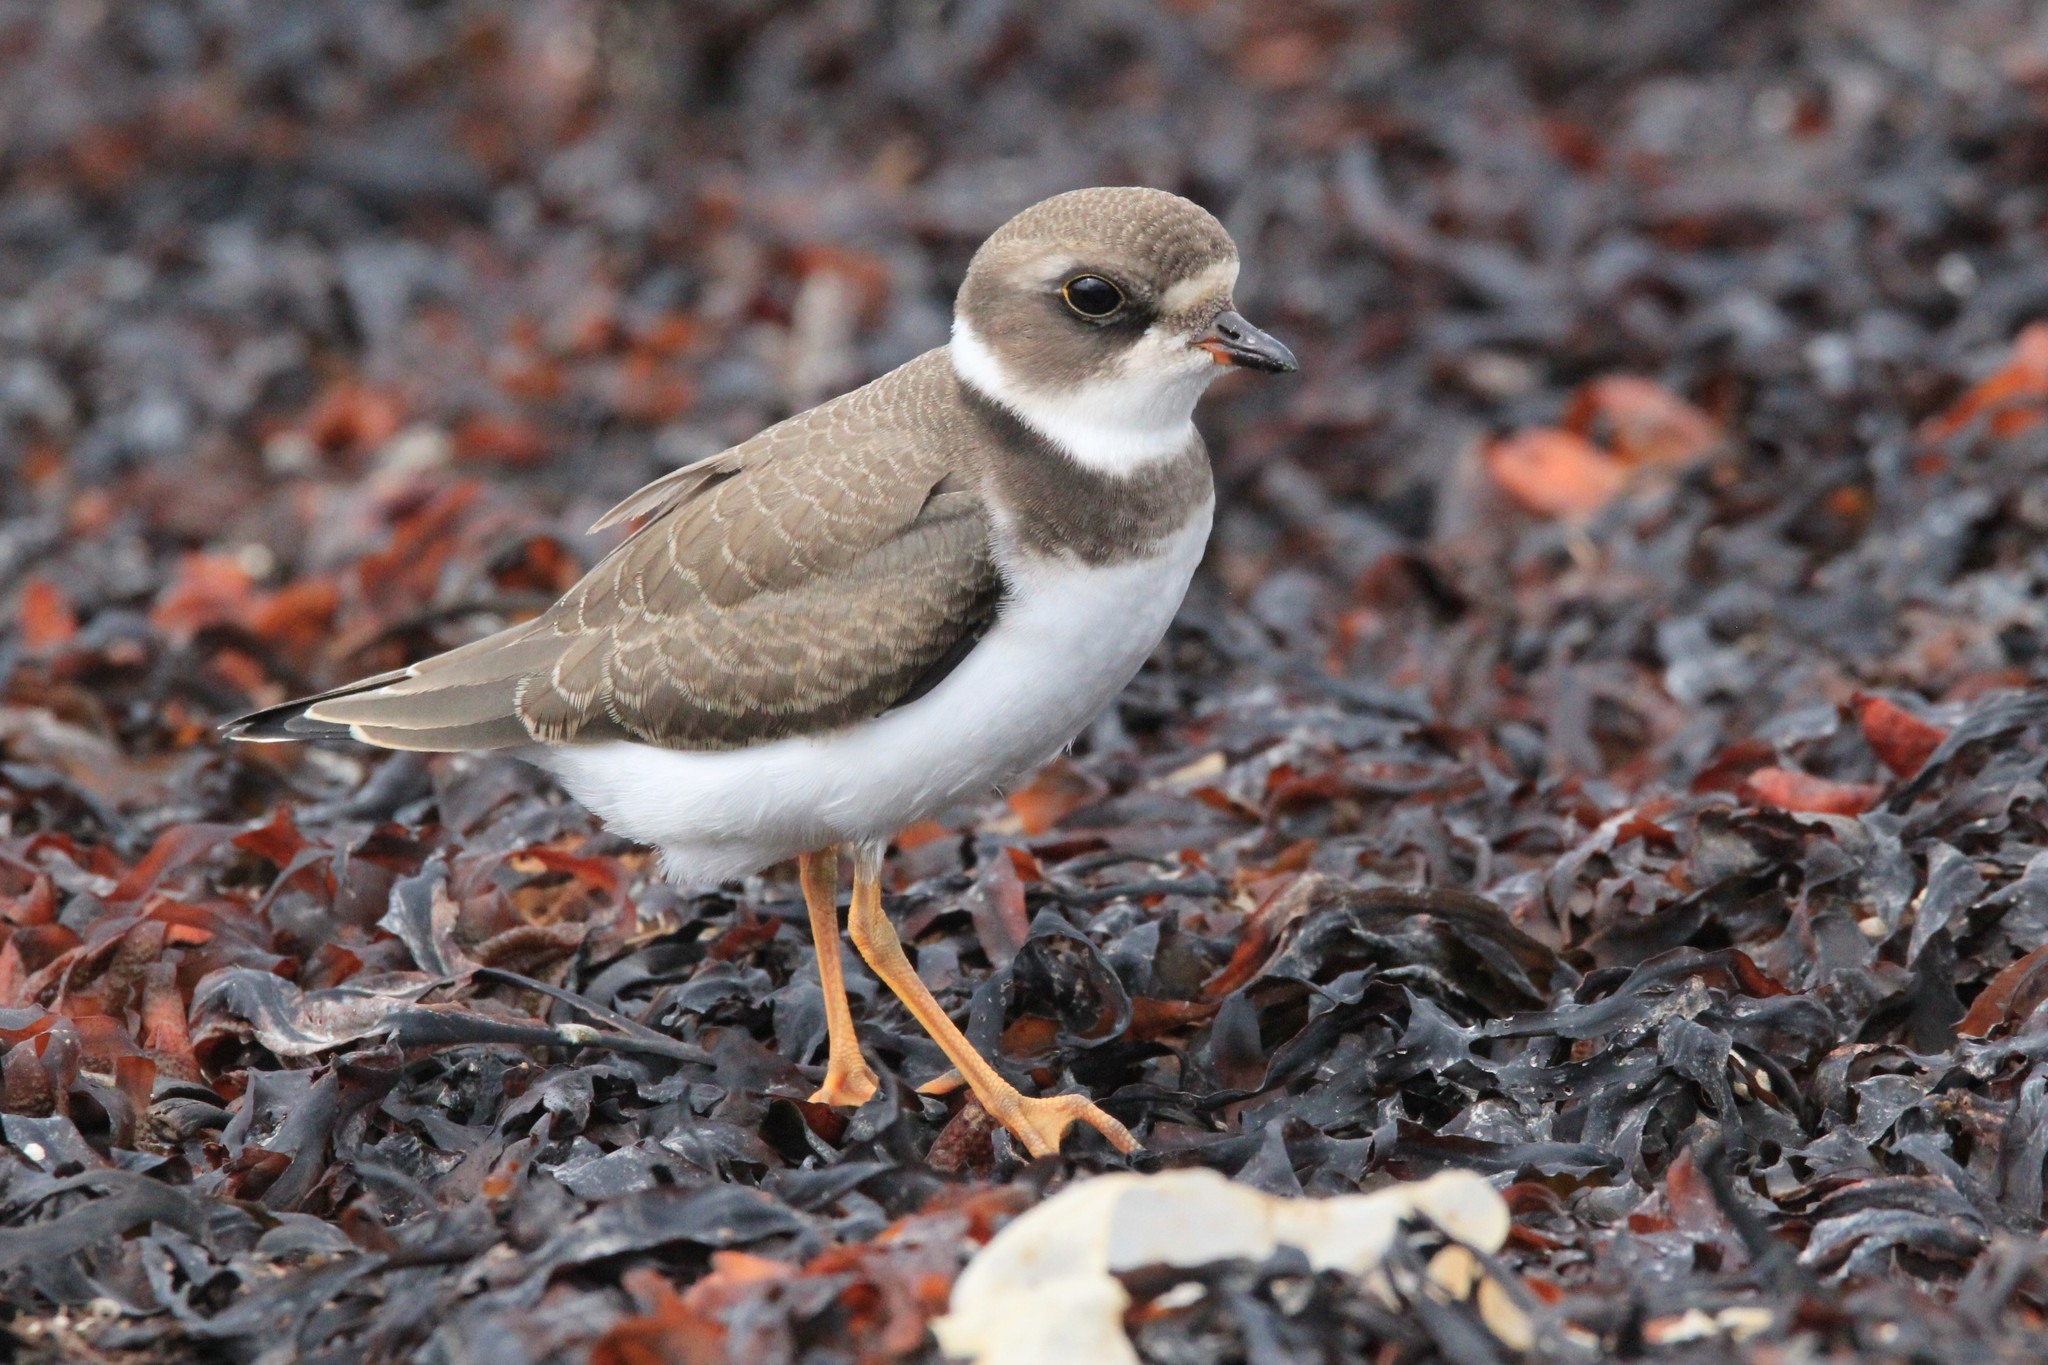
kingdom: Animalia
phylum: Chordata
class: Aves
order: Charadriiformes
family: Charadriidae
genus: Charadrius
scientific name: Charadrius semipalmatus
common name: Semipalmated plover
